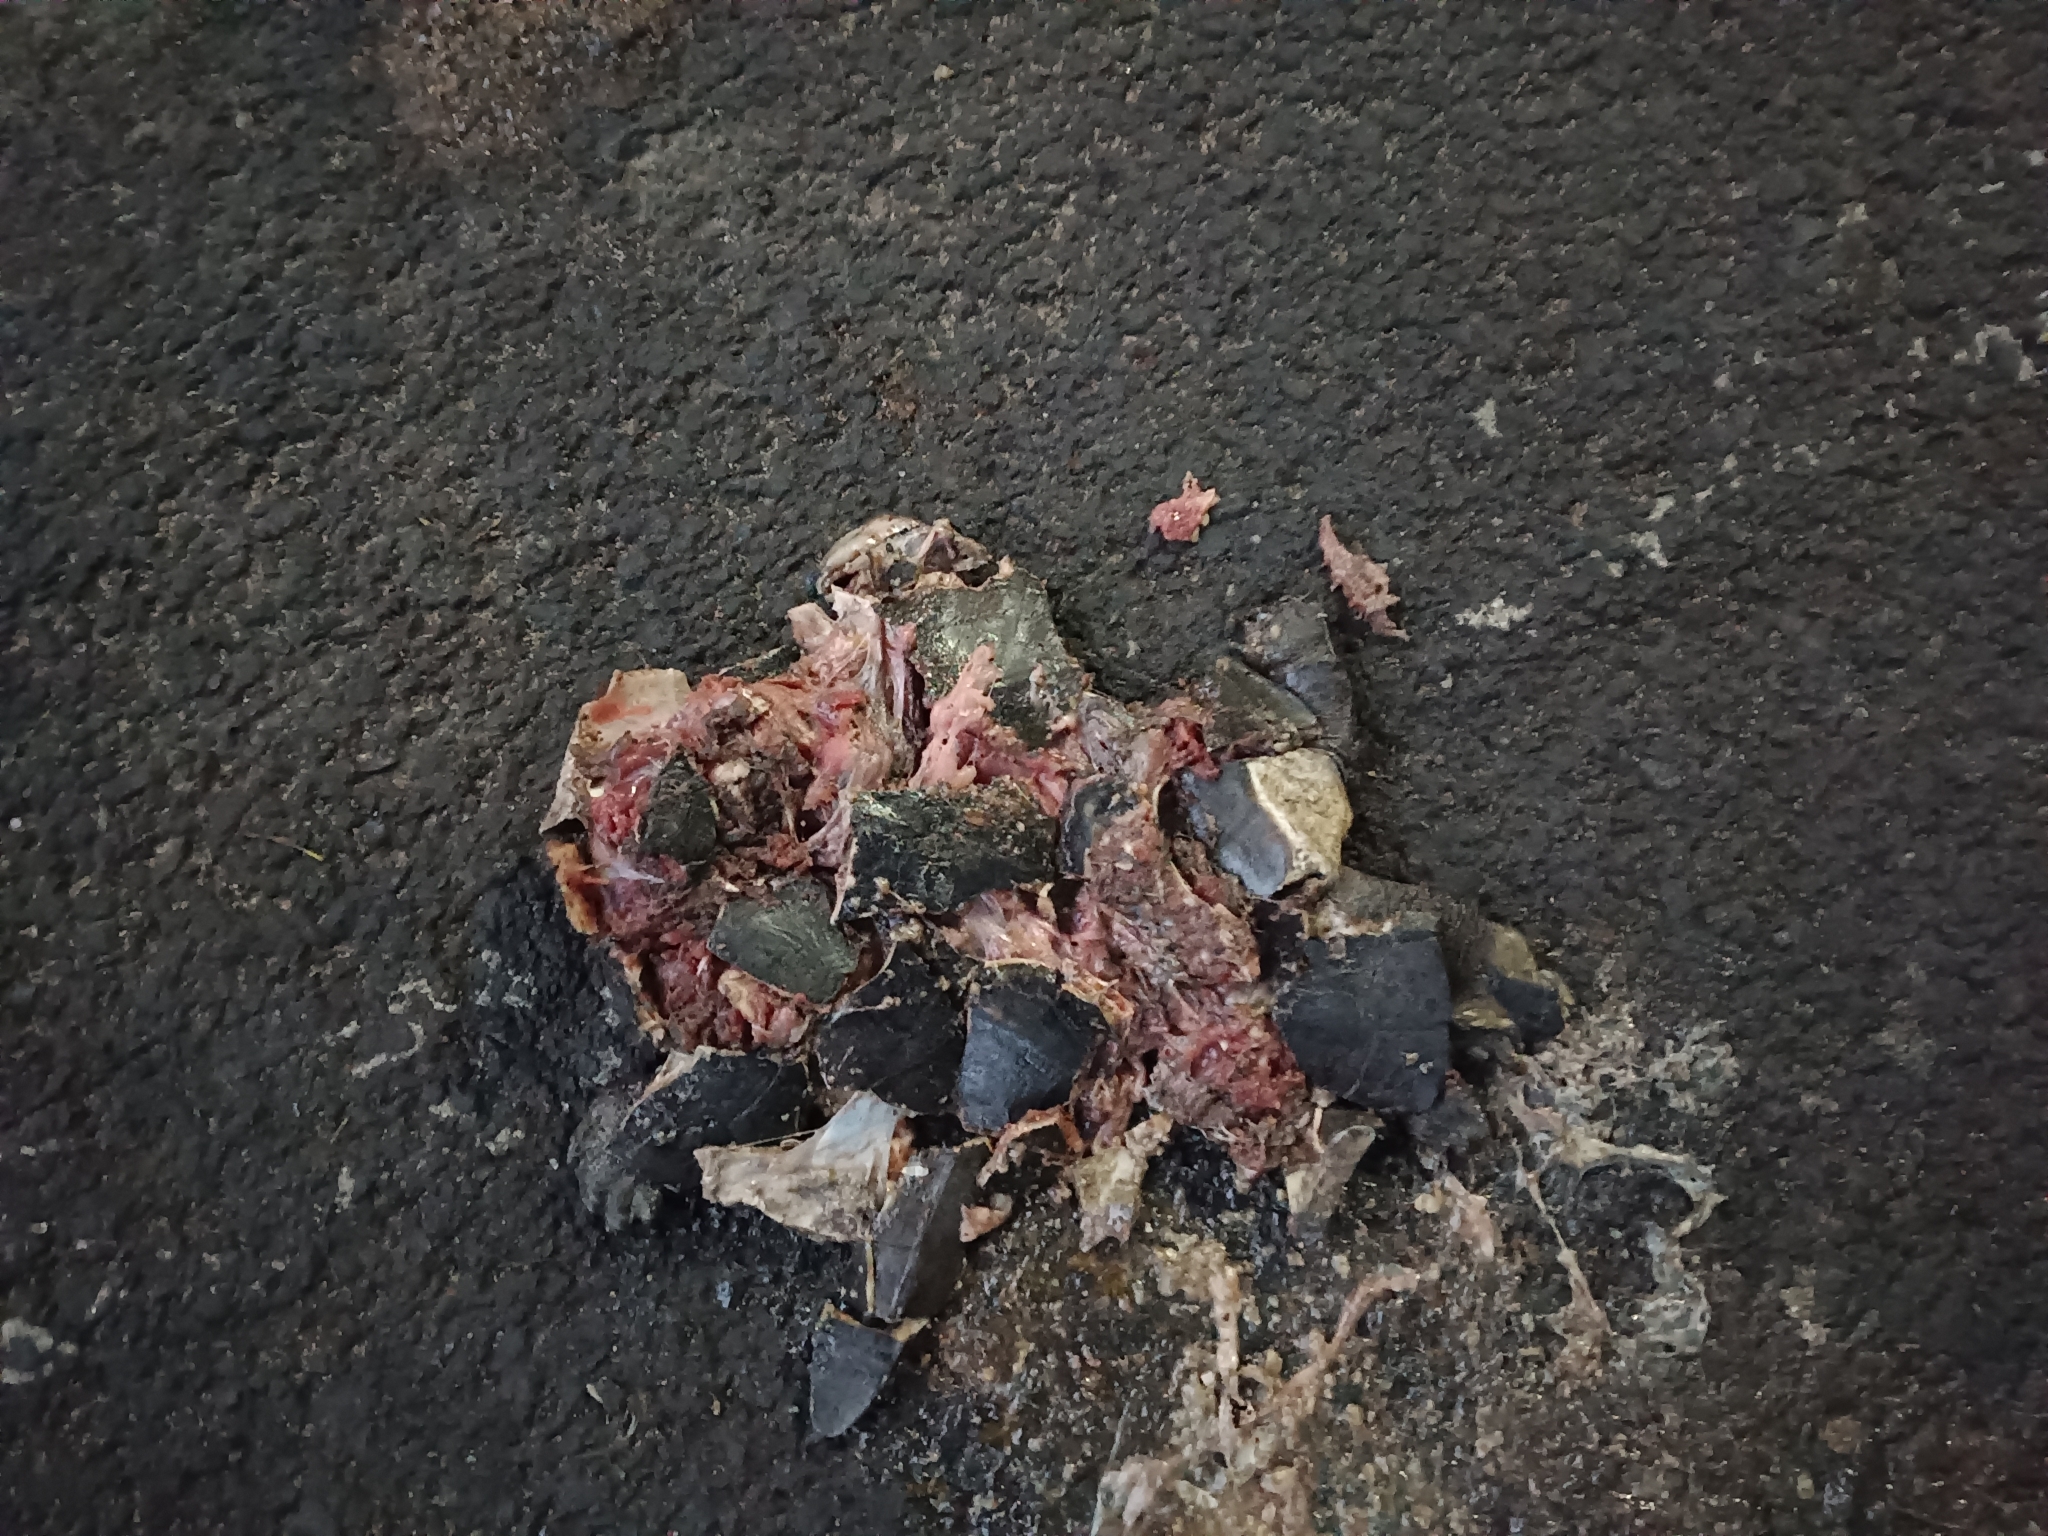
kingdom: Animalia
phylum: Chordata
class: Testudines
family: Geoemydidae
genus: Melanochelys
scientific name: Melanochelys trijuga
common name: Indian black turtle
